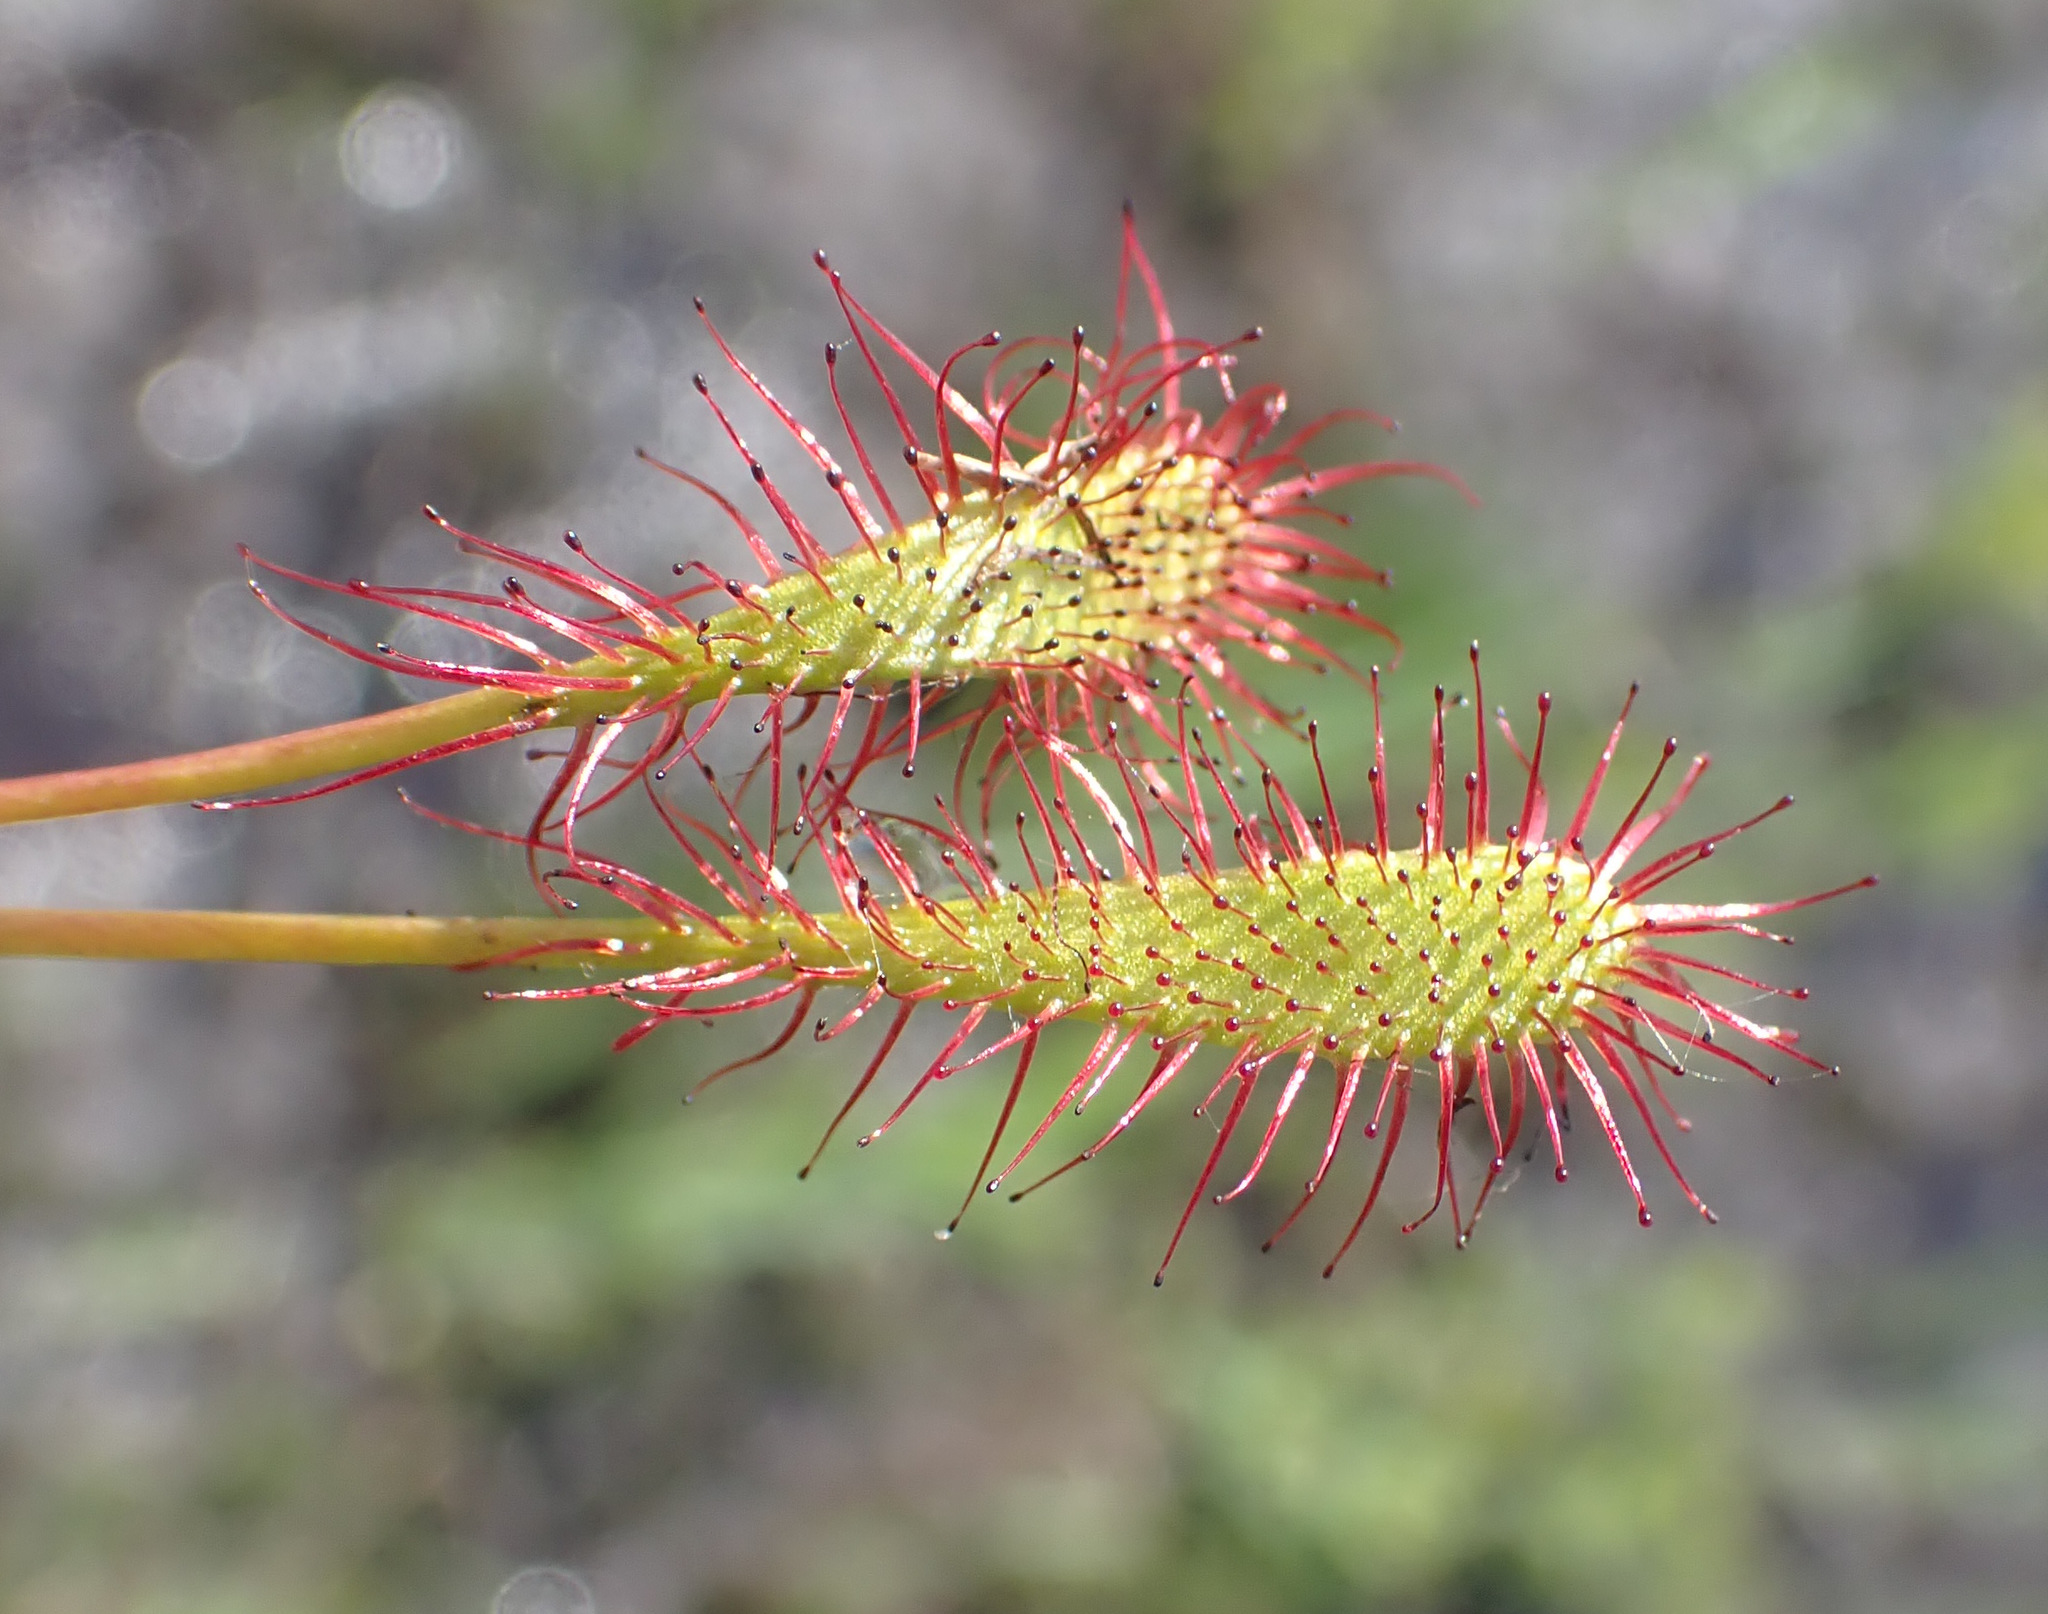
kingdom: Plantae
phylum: Tracheophyta
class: Magnoliopsida
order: Caryophyllales
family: Droseraceae
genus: Drosera
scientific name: Drosera intermedia
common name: Oblong-leaved sundew
